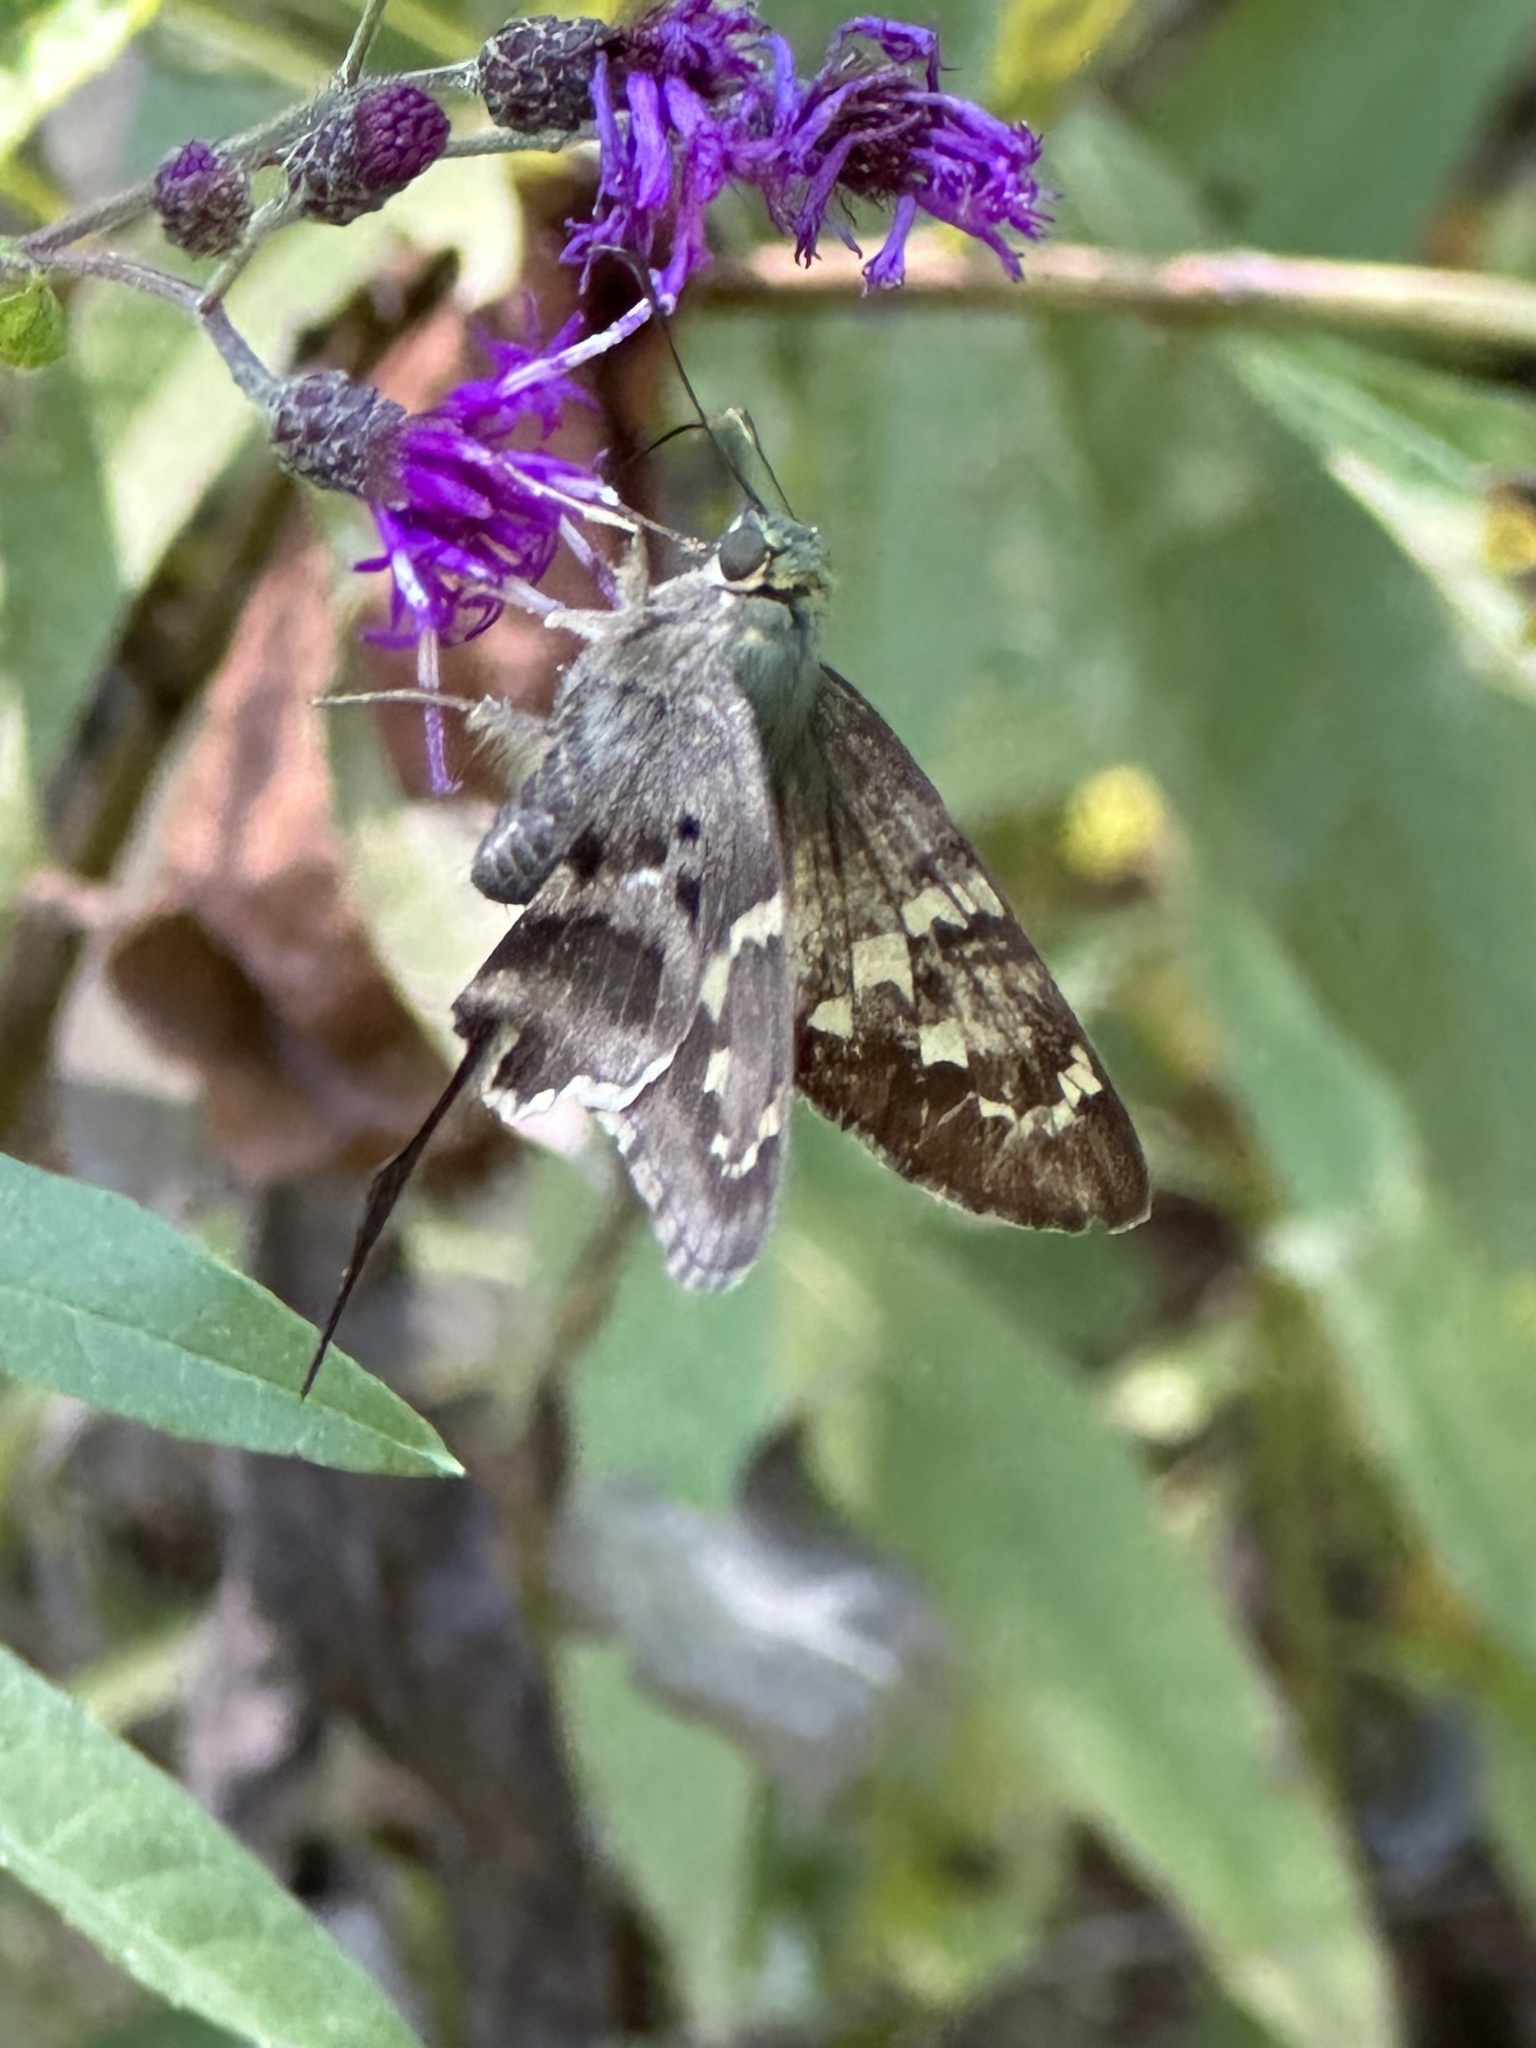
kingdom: Animalia
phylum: Arthropoda
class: Insecta
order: Lepidoptera
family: Hesperiidae
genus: Urbanus
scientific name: Urbanus proteus
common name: Long-tailed skipper
